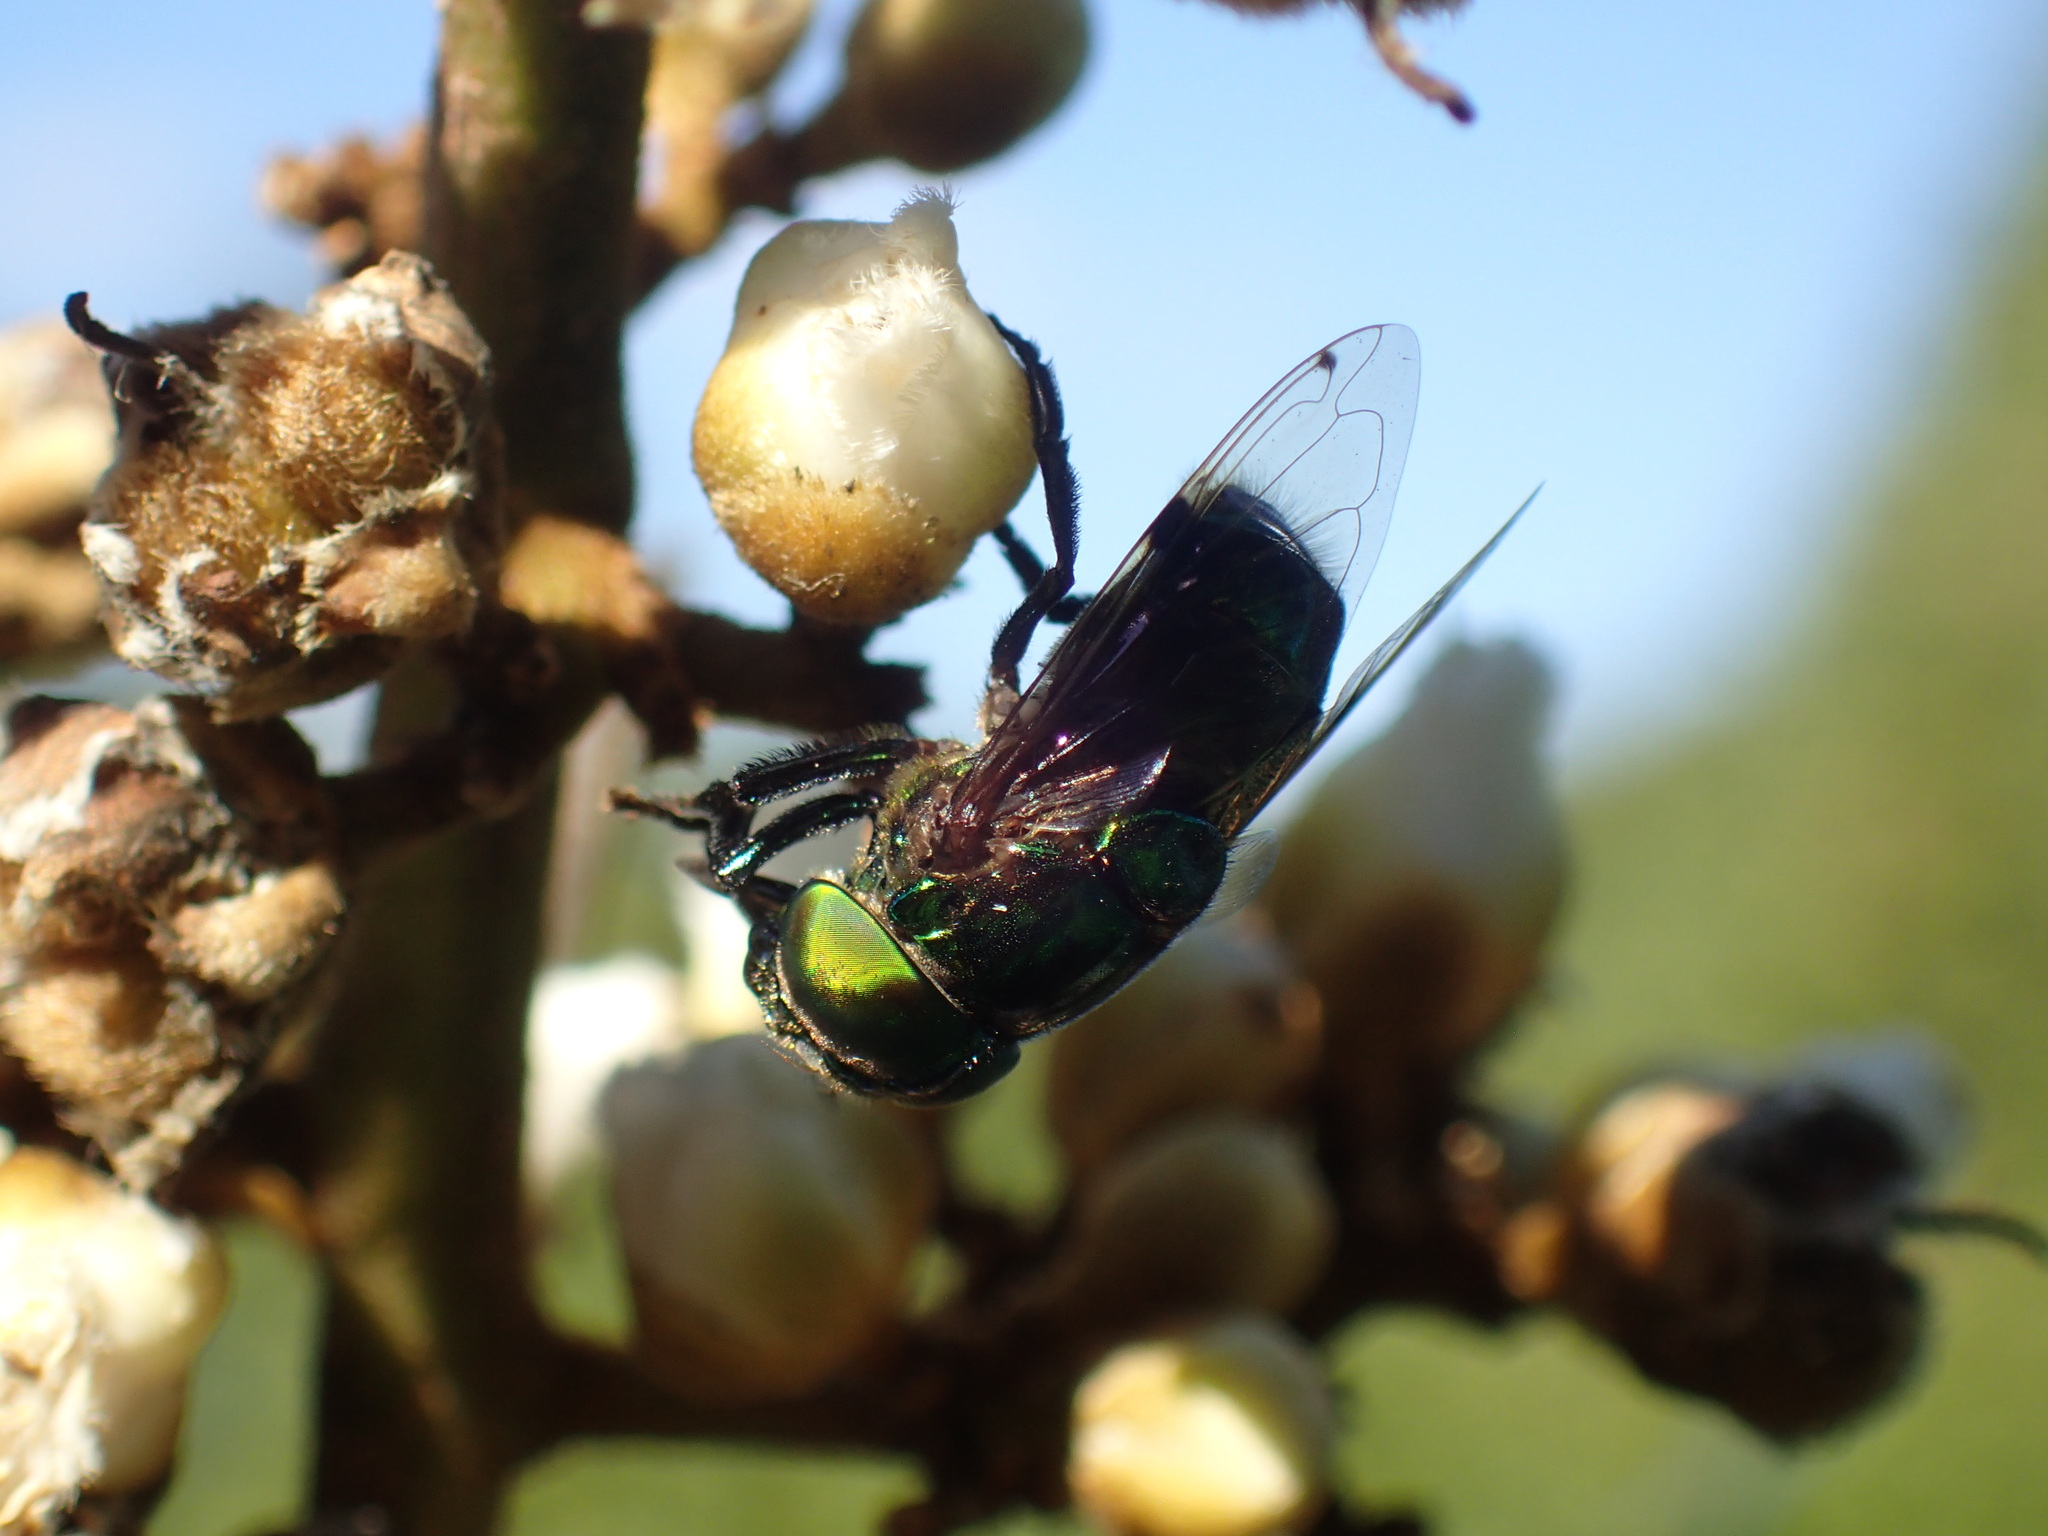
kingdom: Animalia
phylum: Arthropoda
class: Insecta
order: Diptera
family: Syrphidae
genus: Ornidia
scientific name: Ornidia obesa
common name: Syrphid fly
